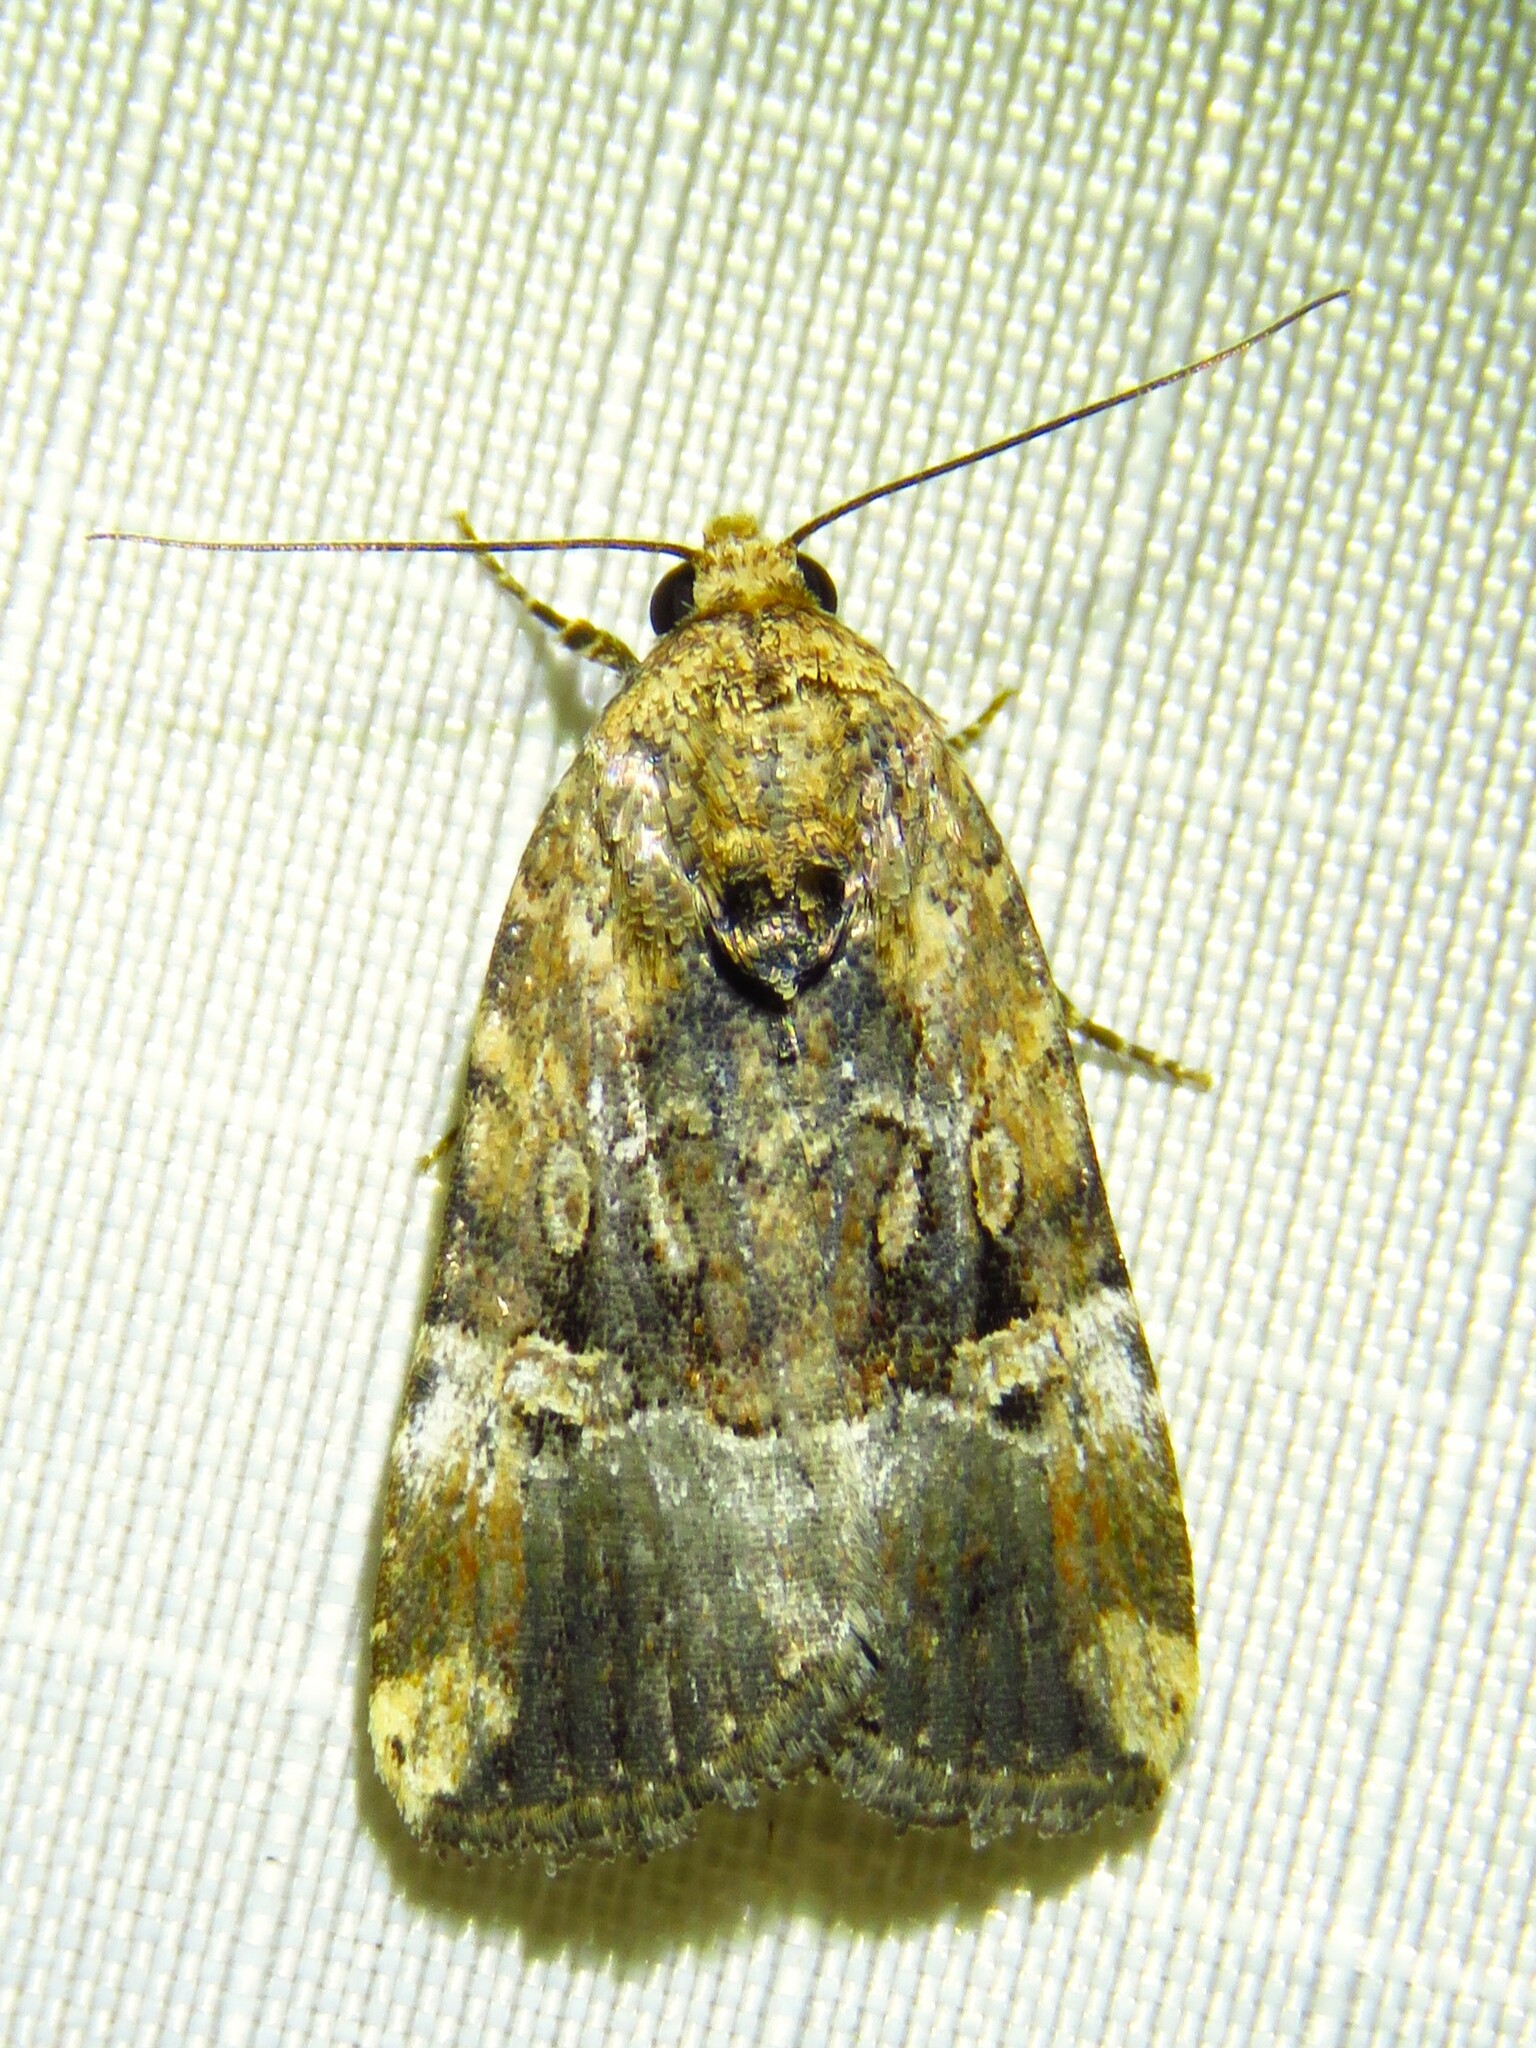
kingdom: Animalia
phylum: Arthropoda
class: Insecta
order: Lepidoptera
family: Noctuidae
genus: Elaphria
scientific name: Elaphria chalcedonia
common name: Chalcedony midget
